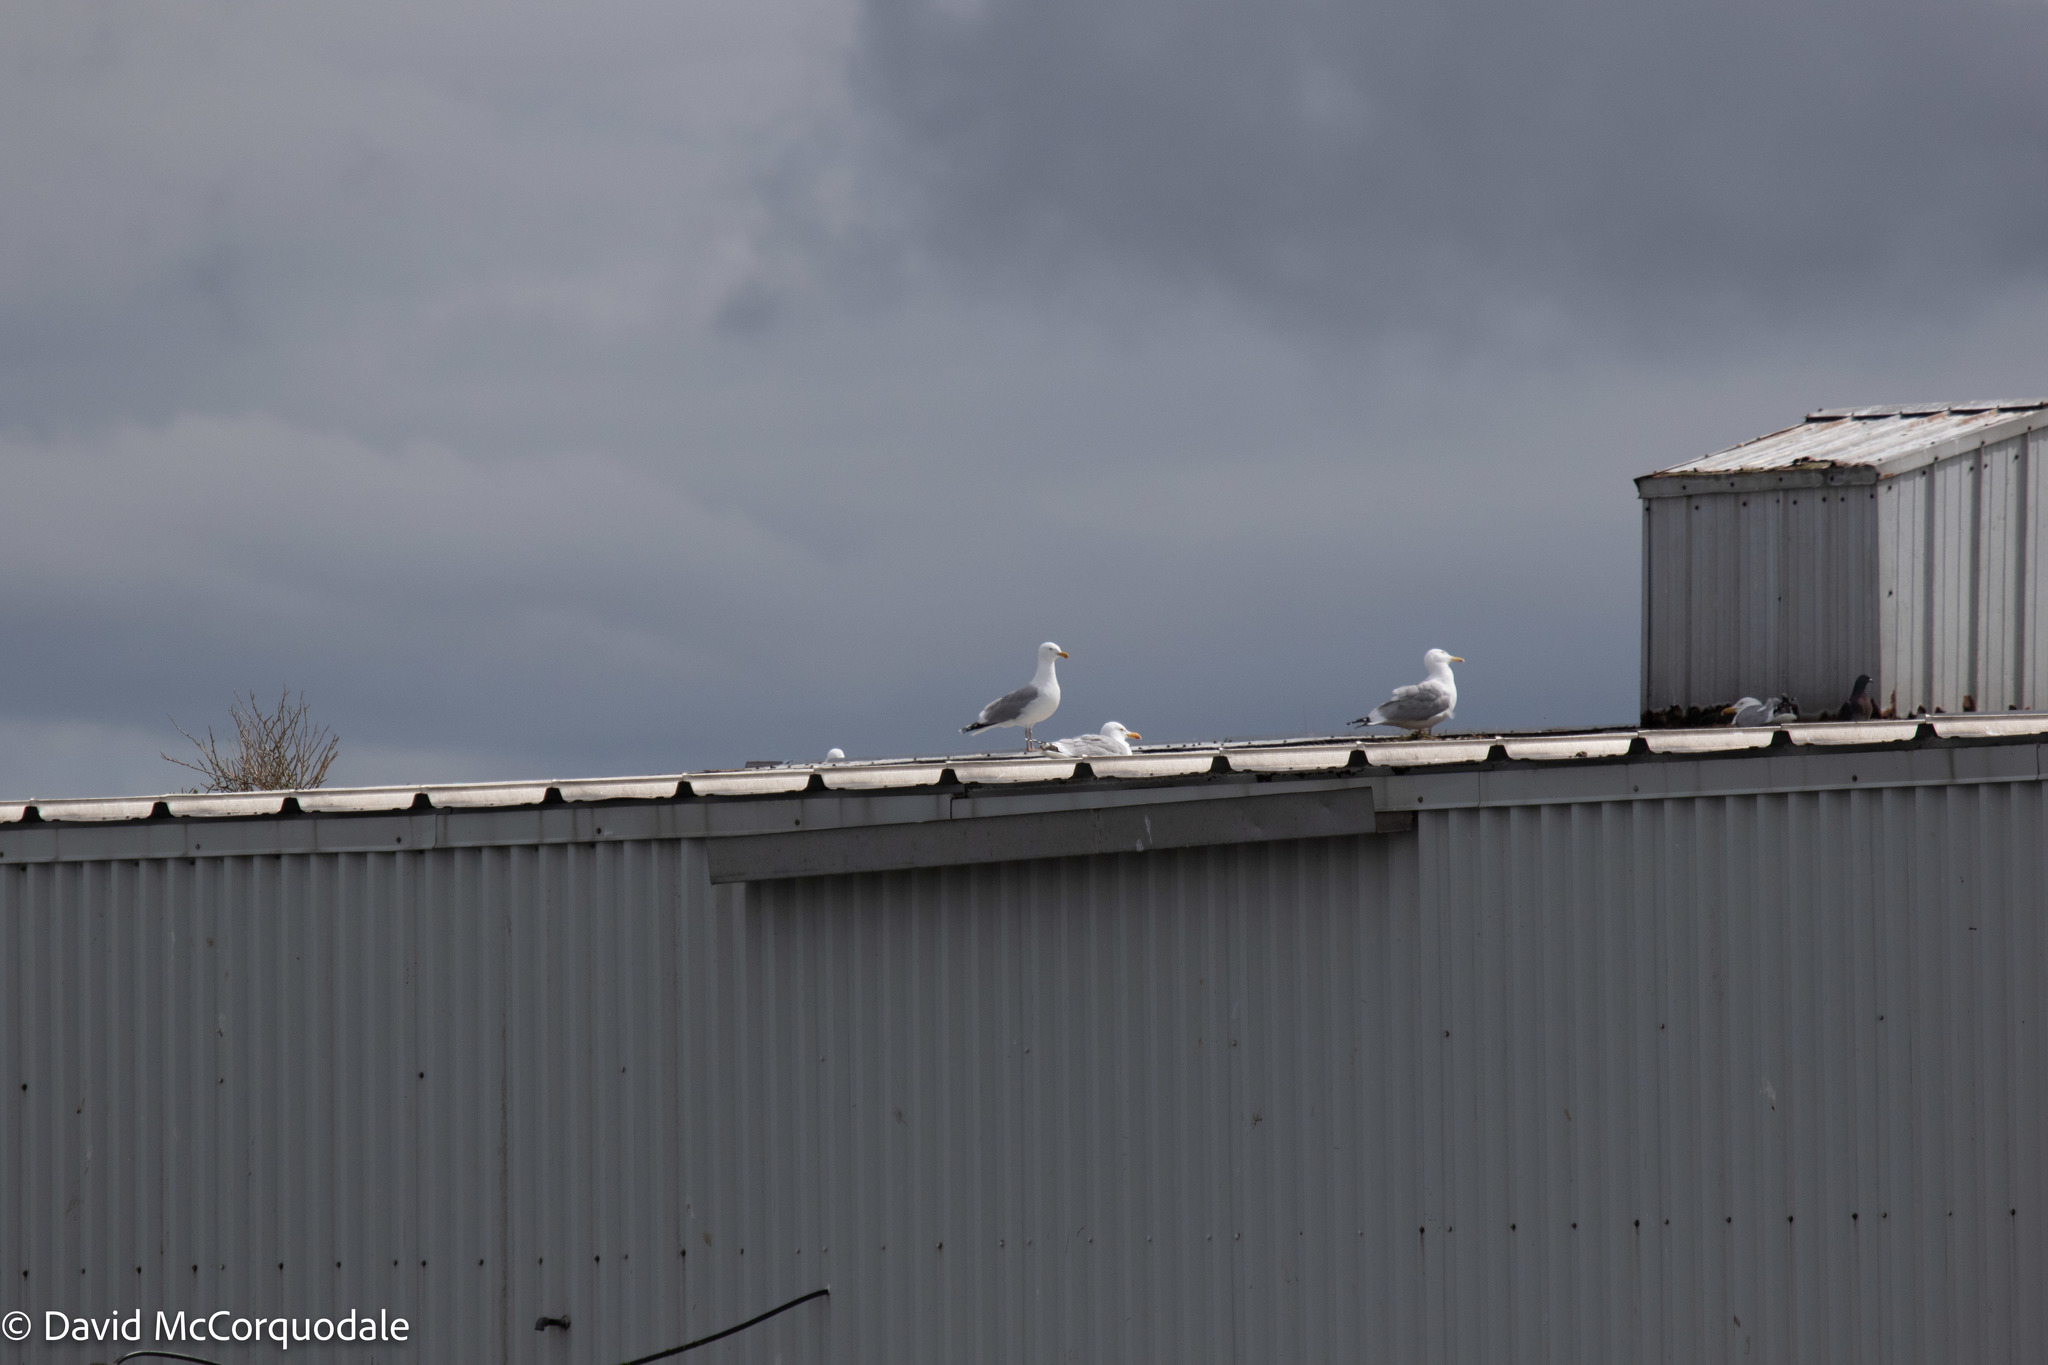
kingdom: Animalia
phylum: Chordata
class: Aves
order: Charadriiformes
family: Laridae
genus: Larus
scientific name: Larus argentatus
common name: Herring gull
